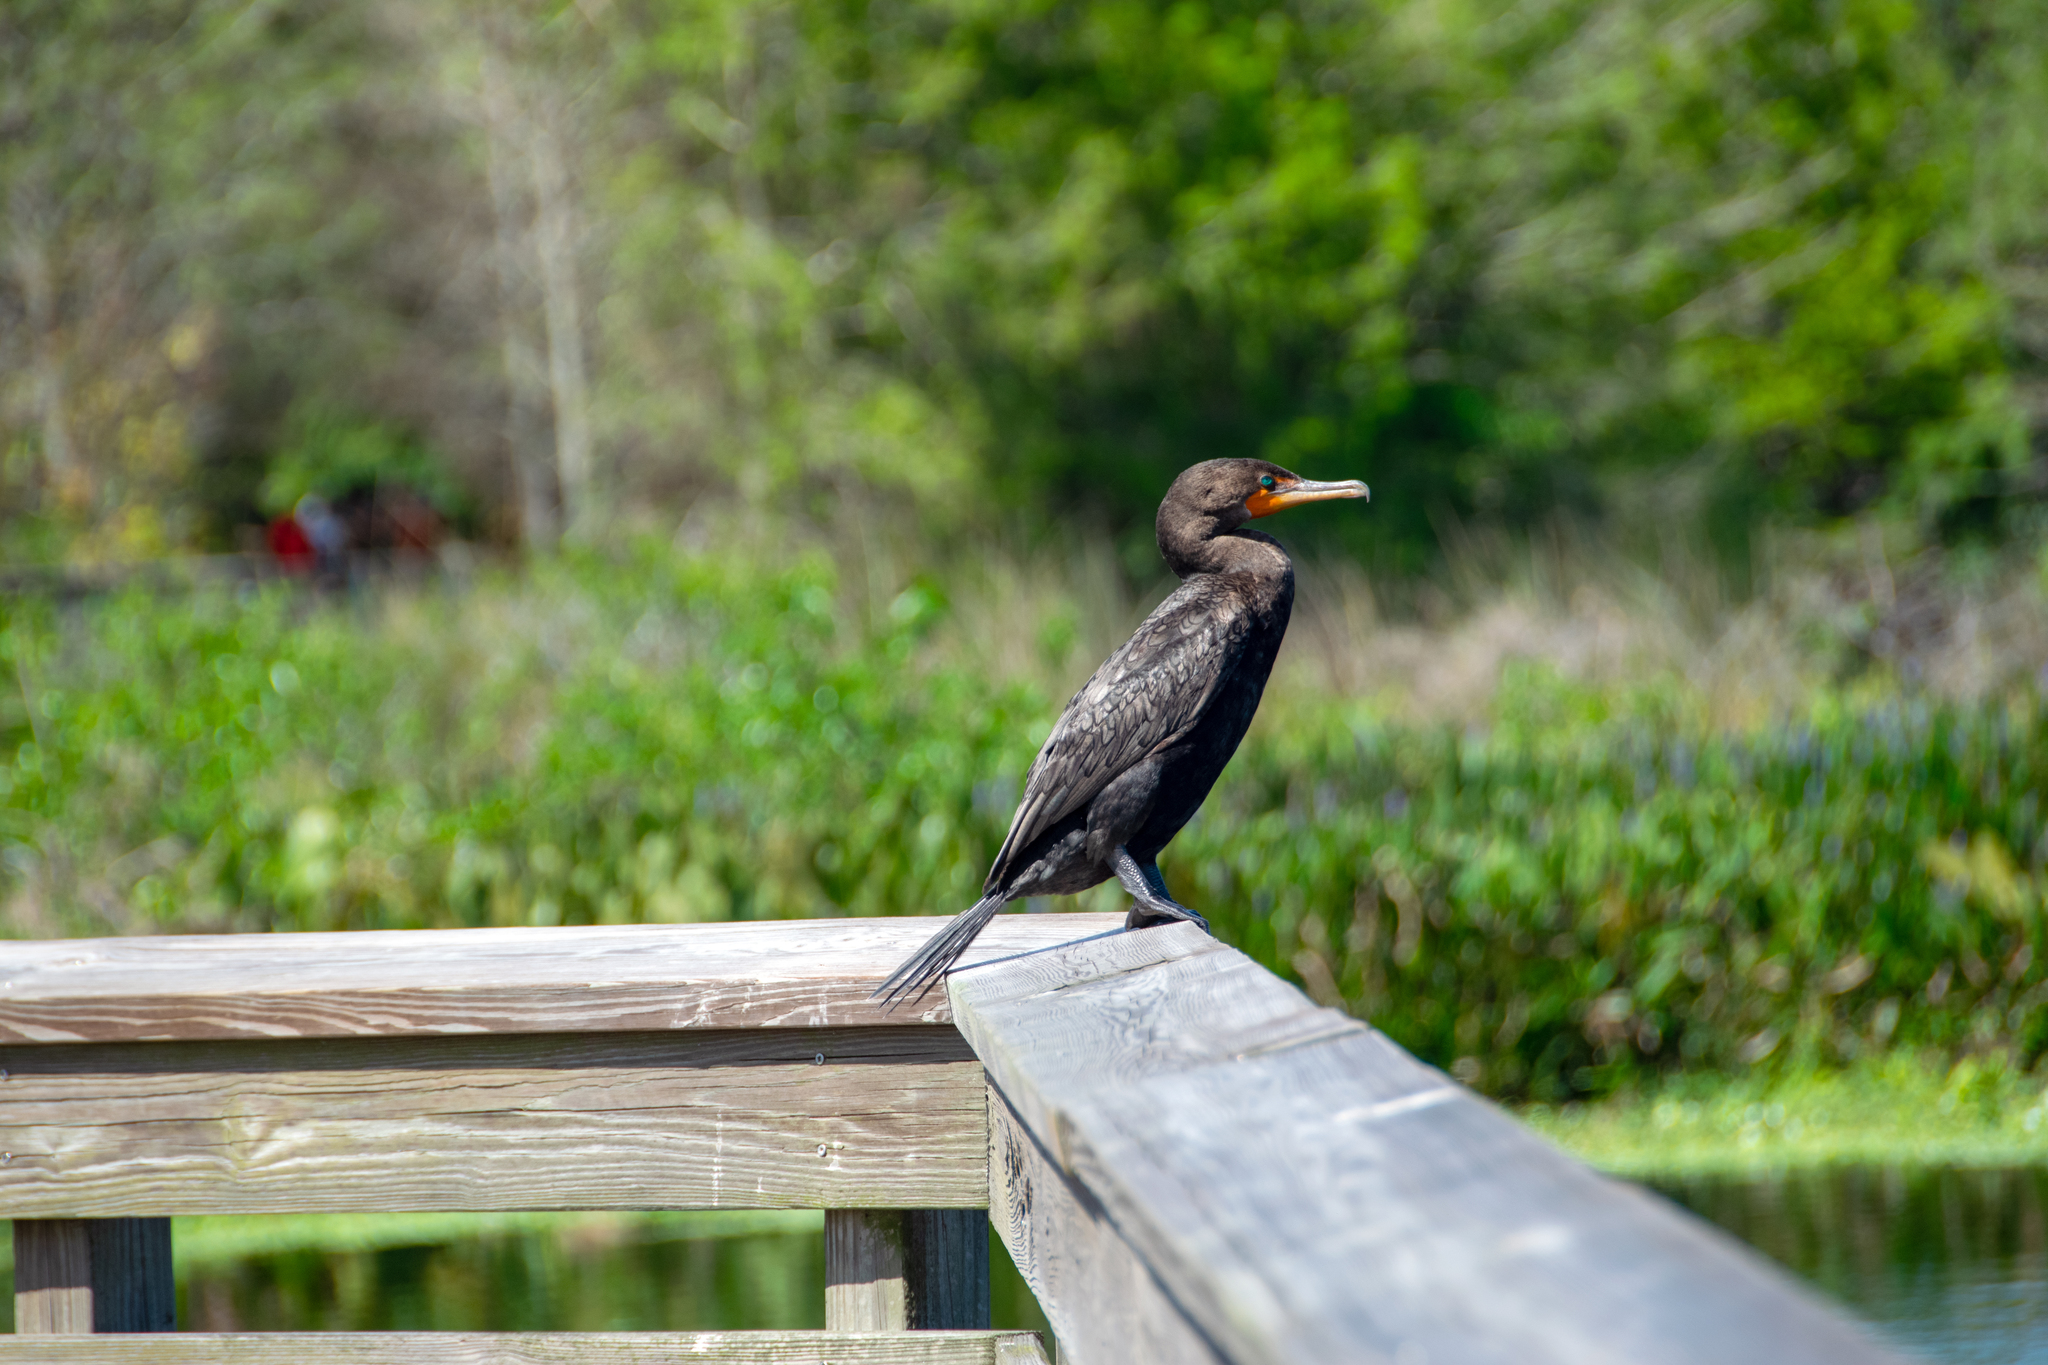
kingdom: Animalia
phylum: Chordata
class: Aves
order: Suliformes
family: Phalacrocoracidae
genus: Phalacrocorax
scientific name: Phalacrocorax auritus
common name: Double-crested cormorant
